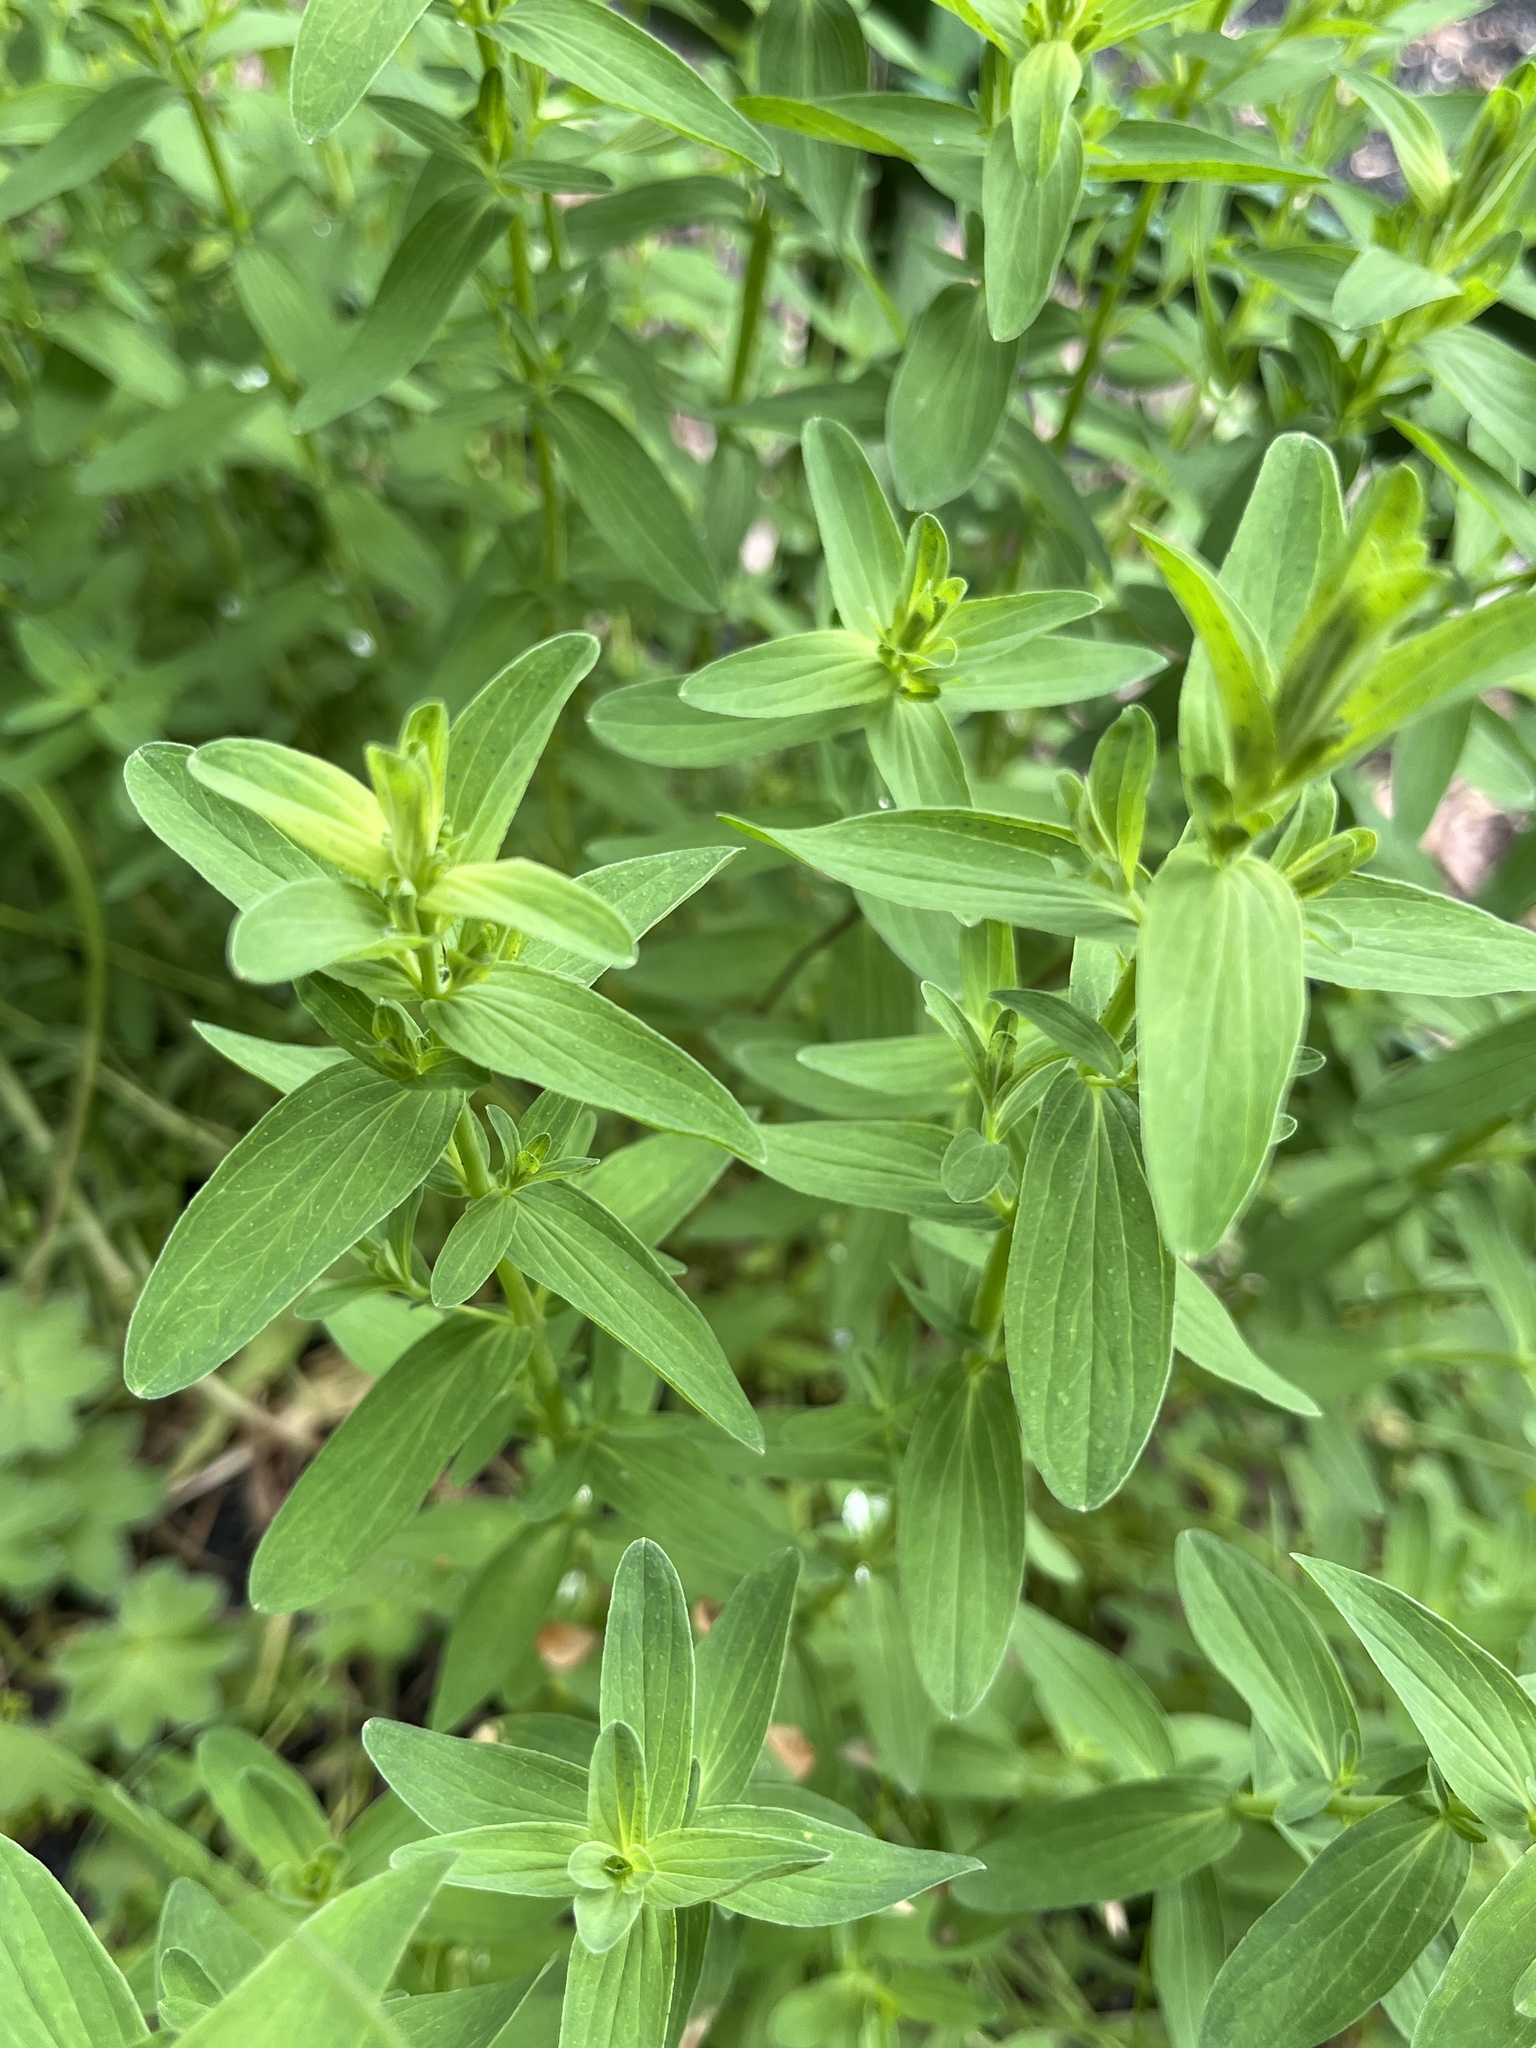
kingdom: Plantae
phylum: Tracheophyta
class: Magnoliopsida
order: Malpighiales
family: Hypericaceae
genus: Hypericum
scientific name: Hypericum perforatum
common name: Common st. johnswort
